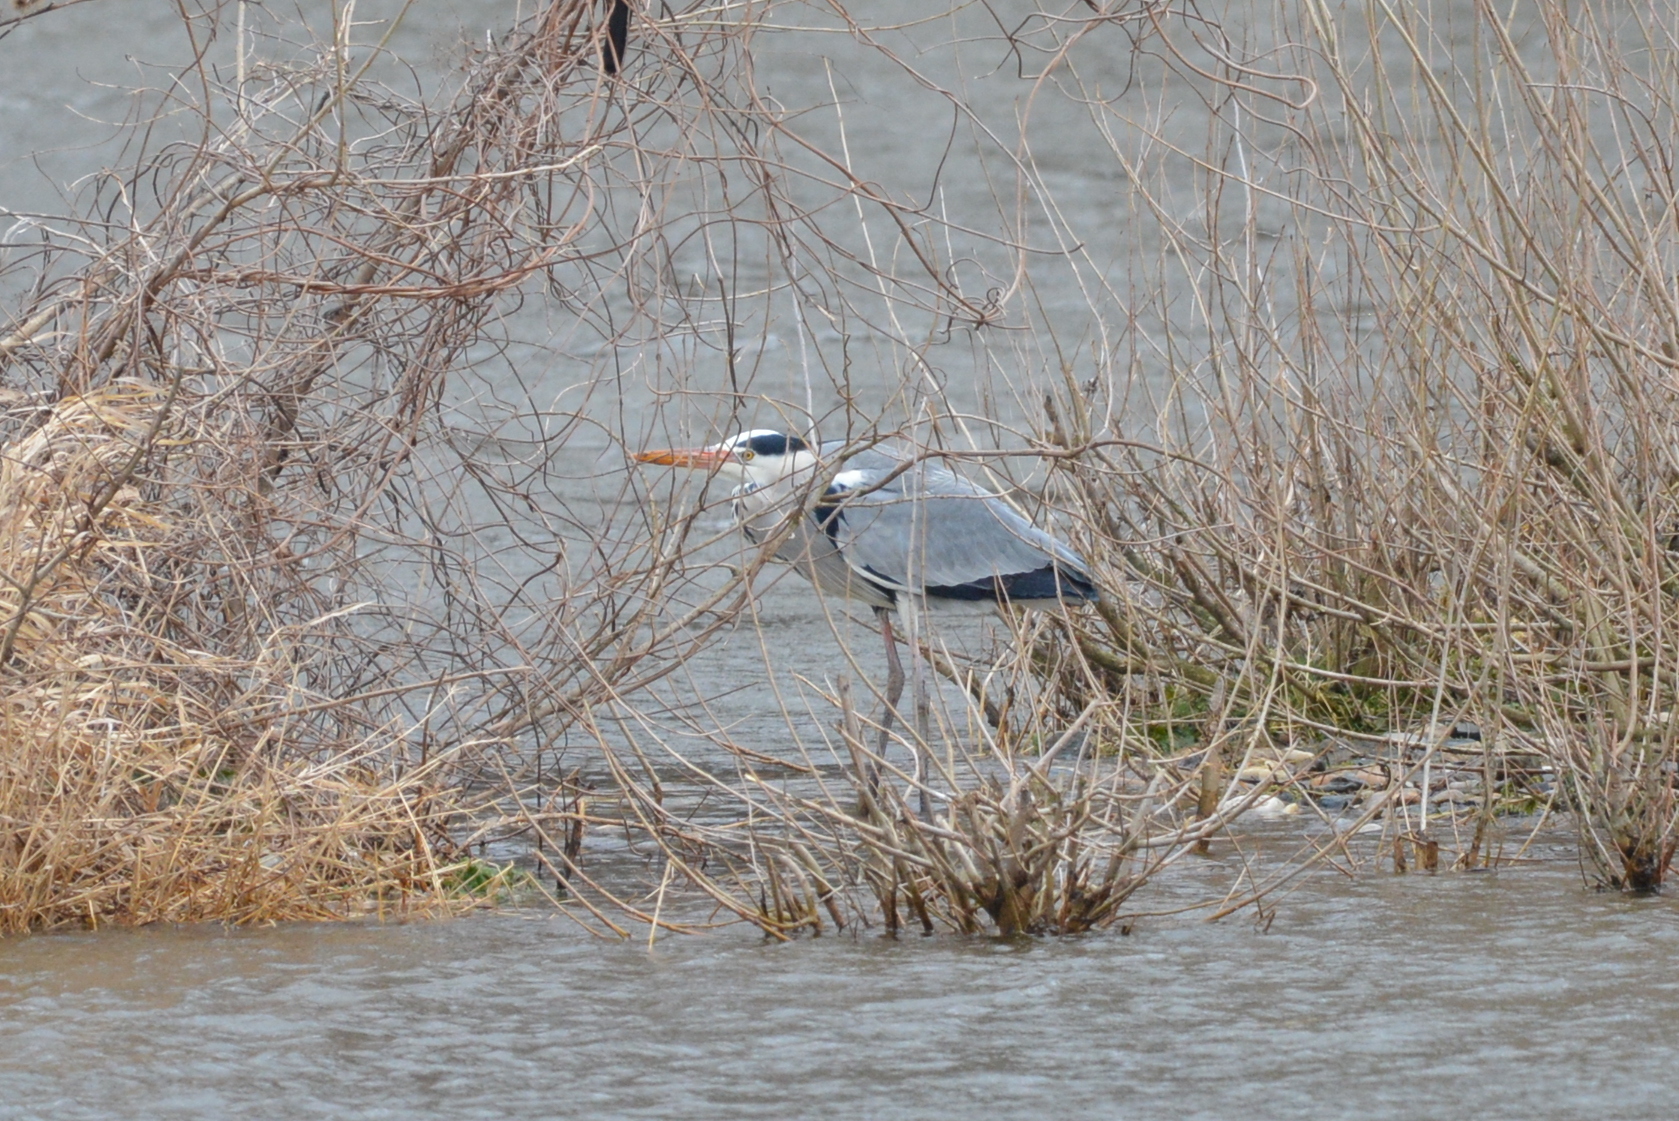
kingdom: Animalia
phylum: Chordata
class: Aves
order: Pelecaniformes
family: Ardeidae
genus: Ardea
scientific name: Ardea cinerea
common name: Grey heron
